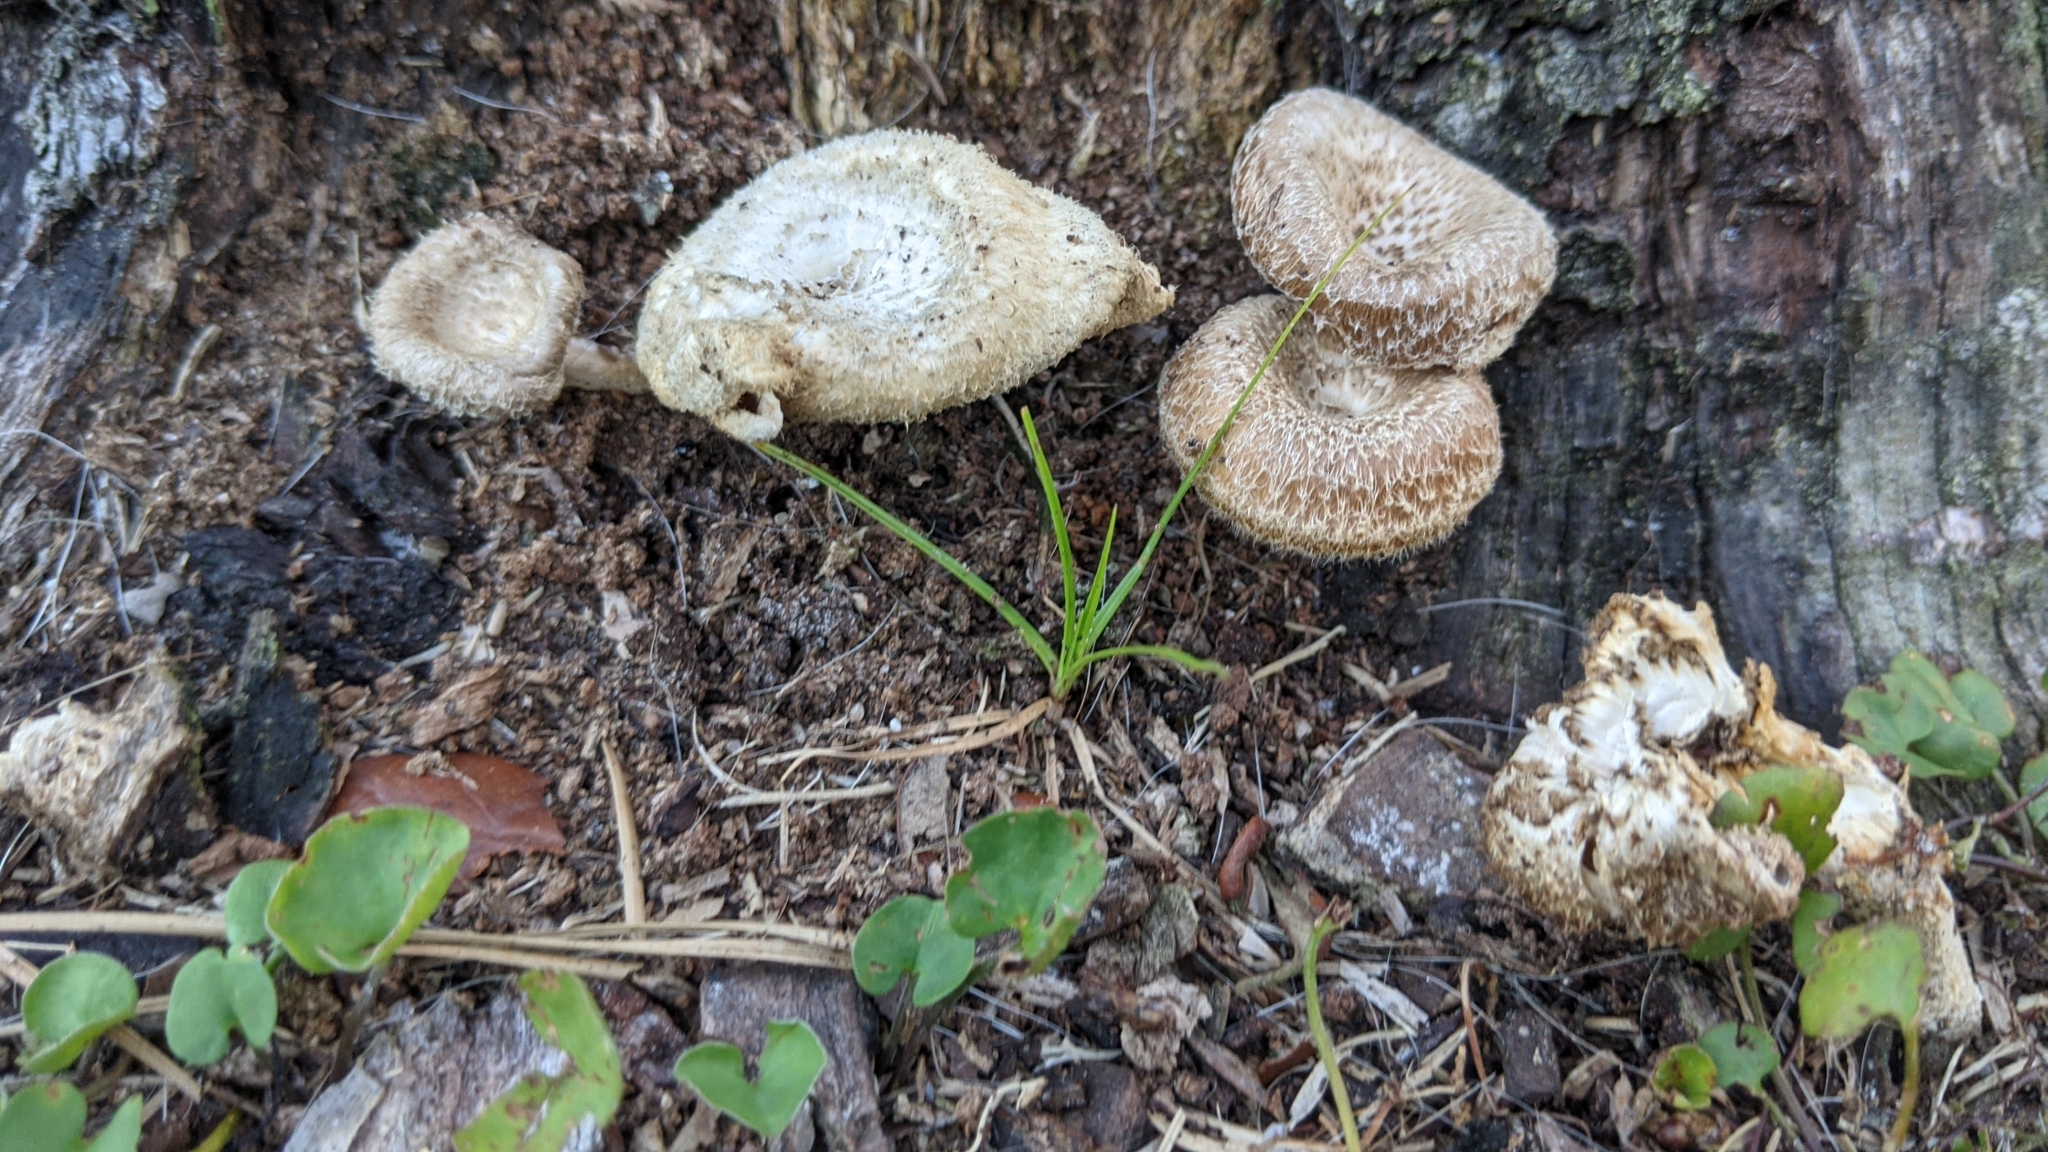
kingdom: Fungi
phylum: Basidiomycota
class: Agaricomycetes
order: Polyporales
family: Polyporaceae
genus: Lentinus
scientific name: Lentinus crinitus
